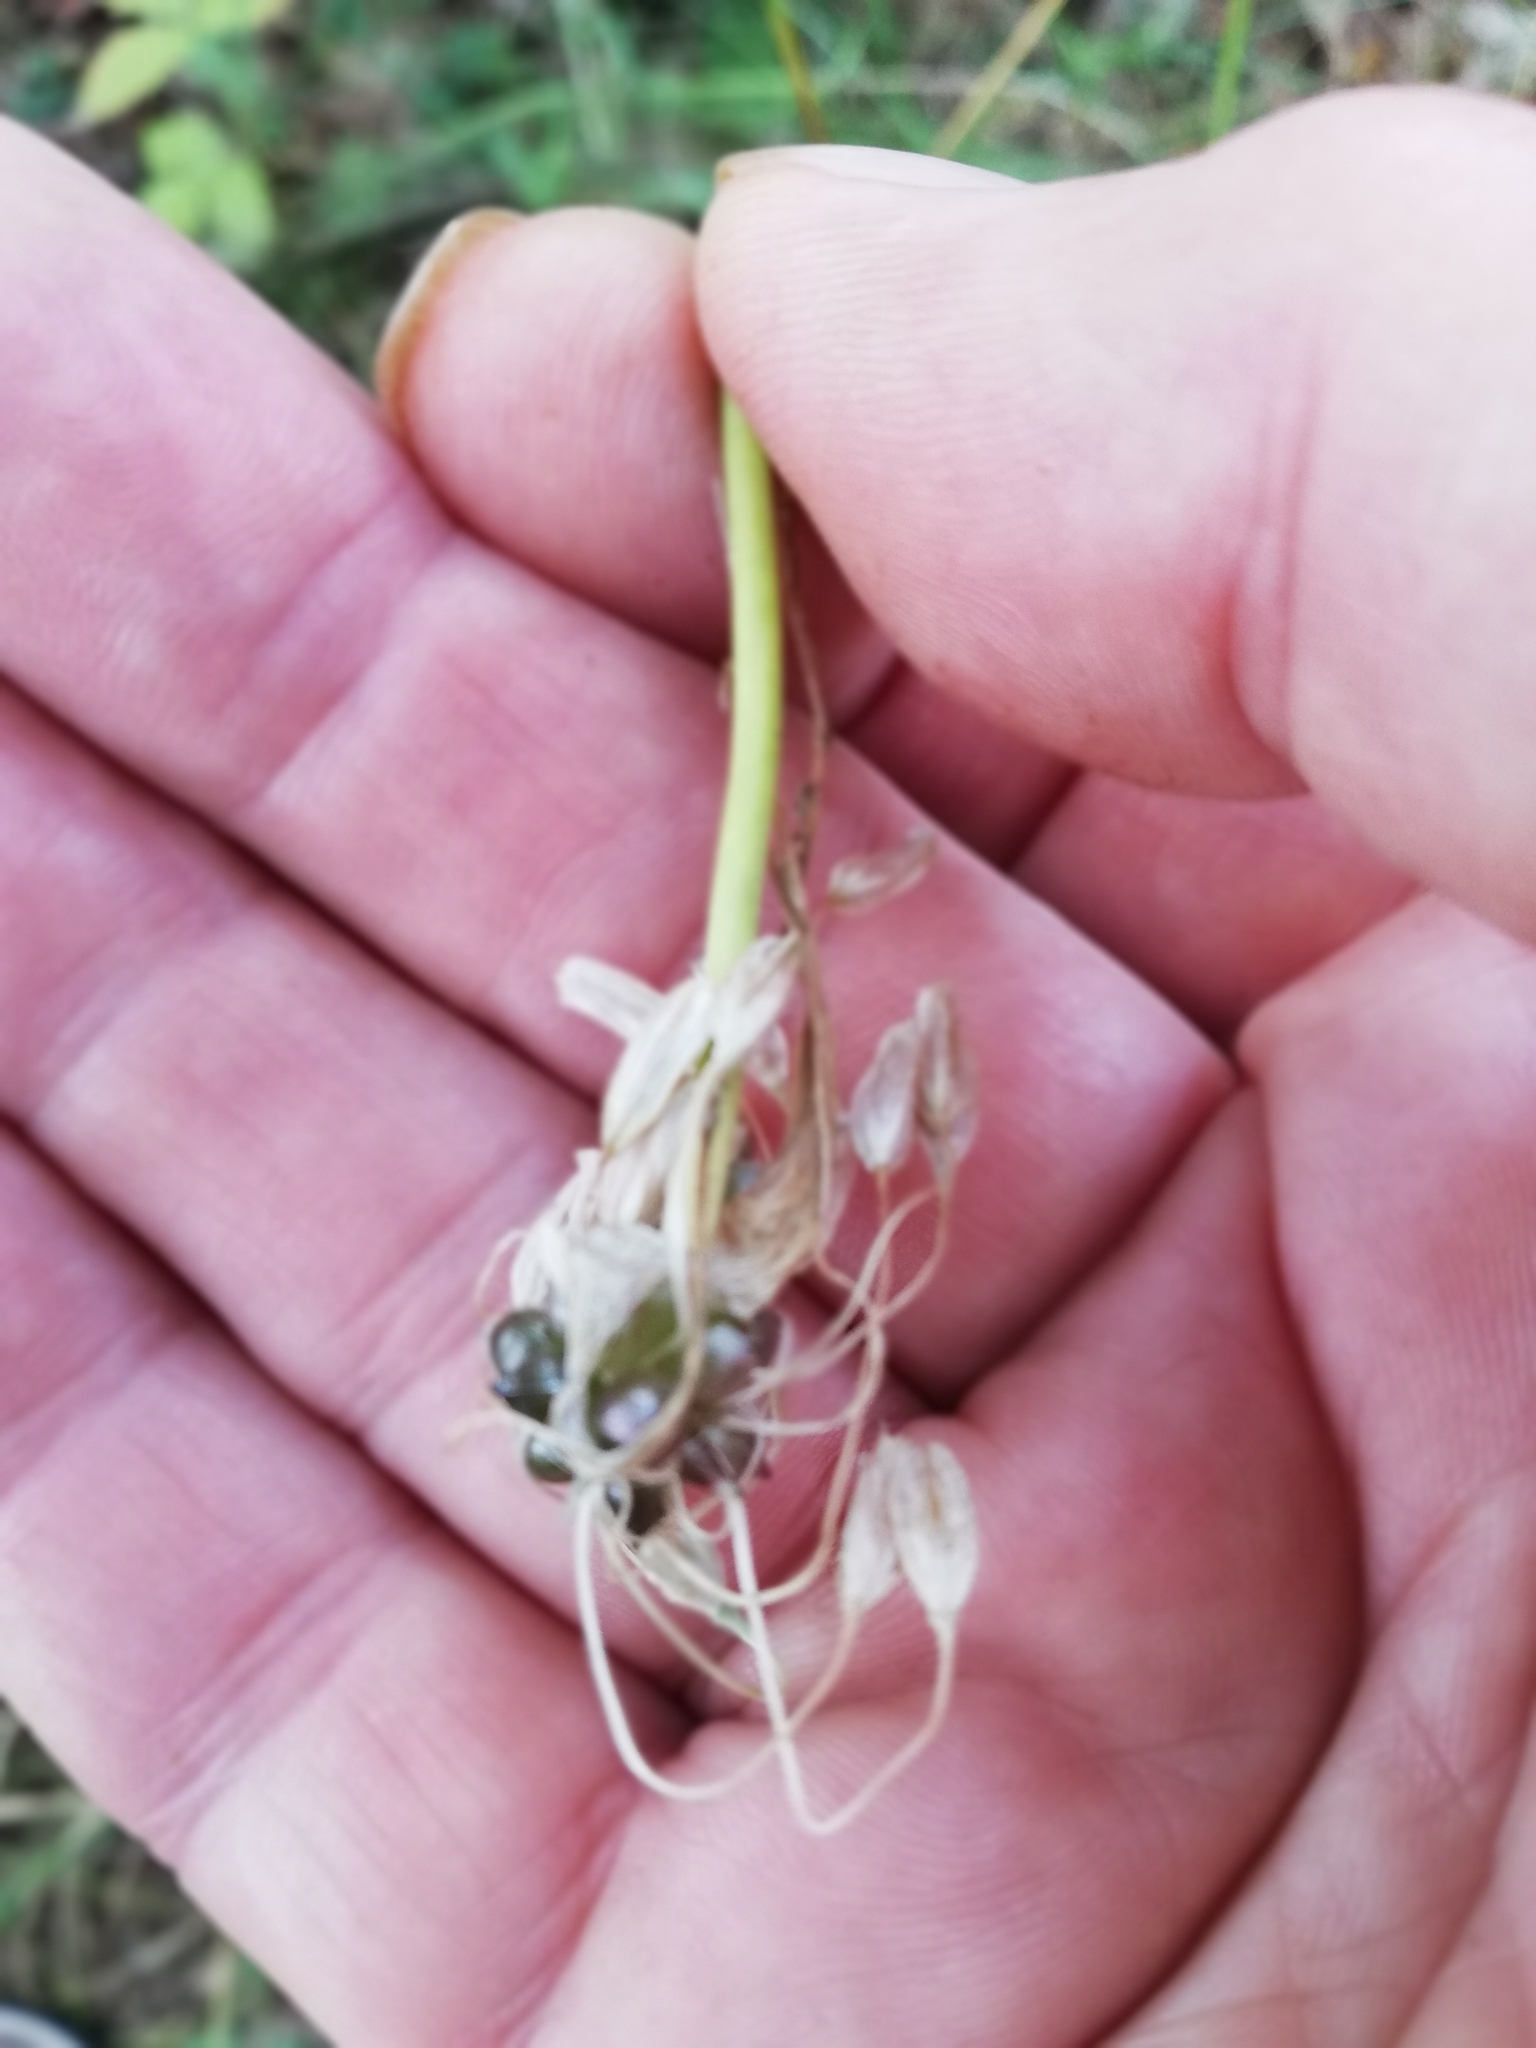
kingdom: Plantae
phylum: Tracheophyta
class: Liliopsida
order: Asparagales
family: Amaryllidaceae
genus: Allium
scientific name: Allium oleraceum
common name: Field garlic
